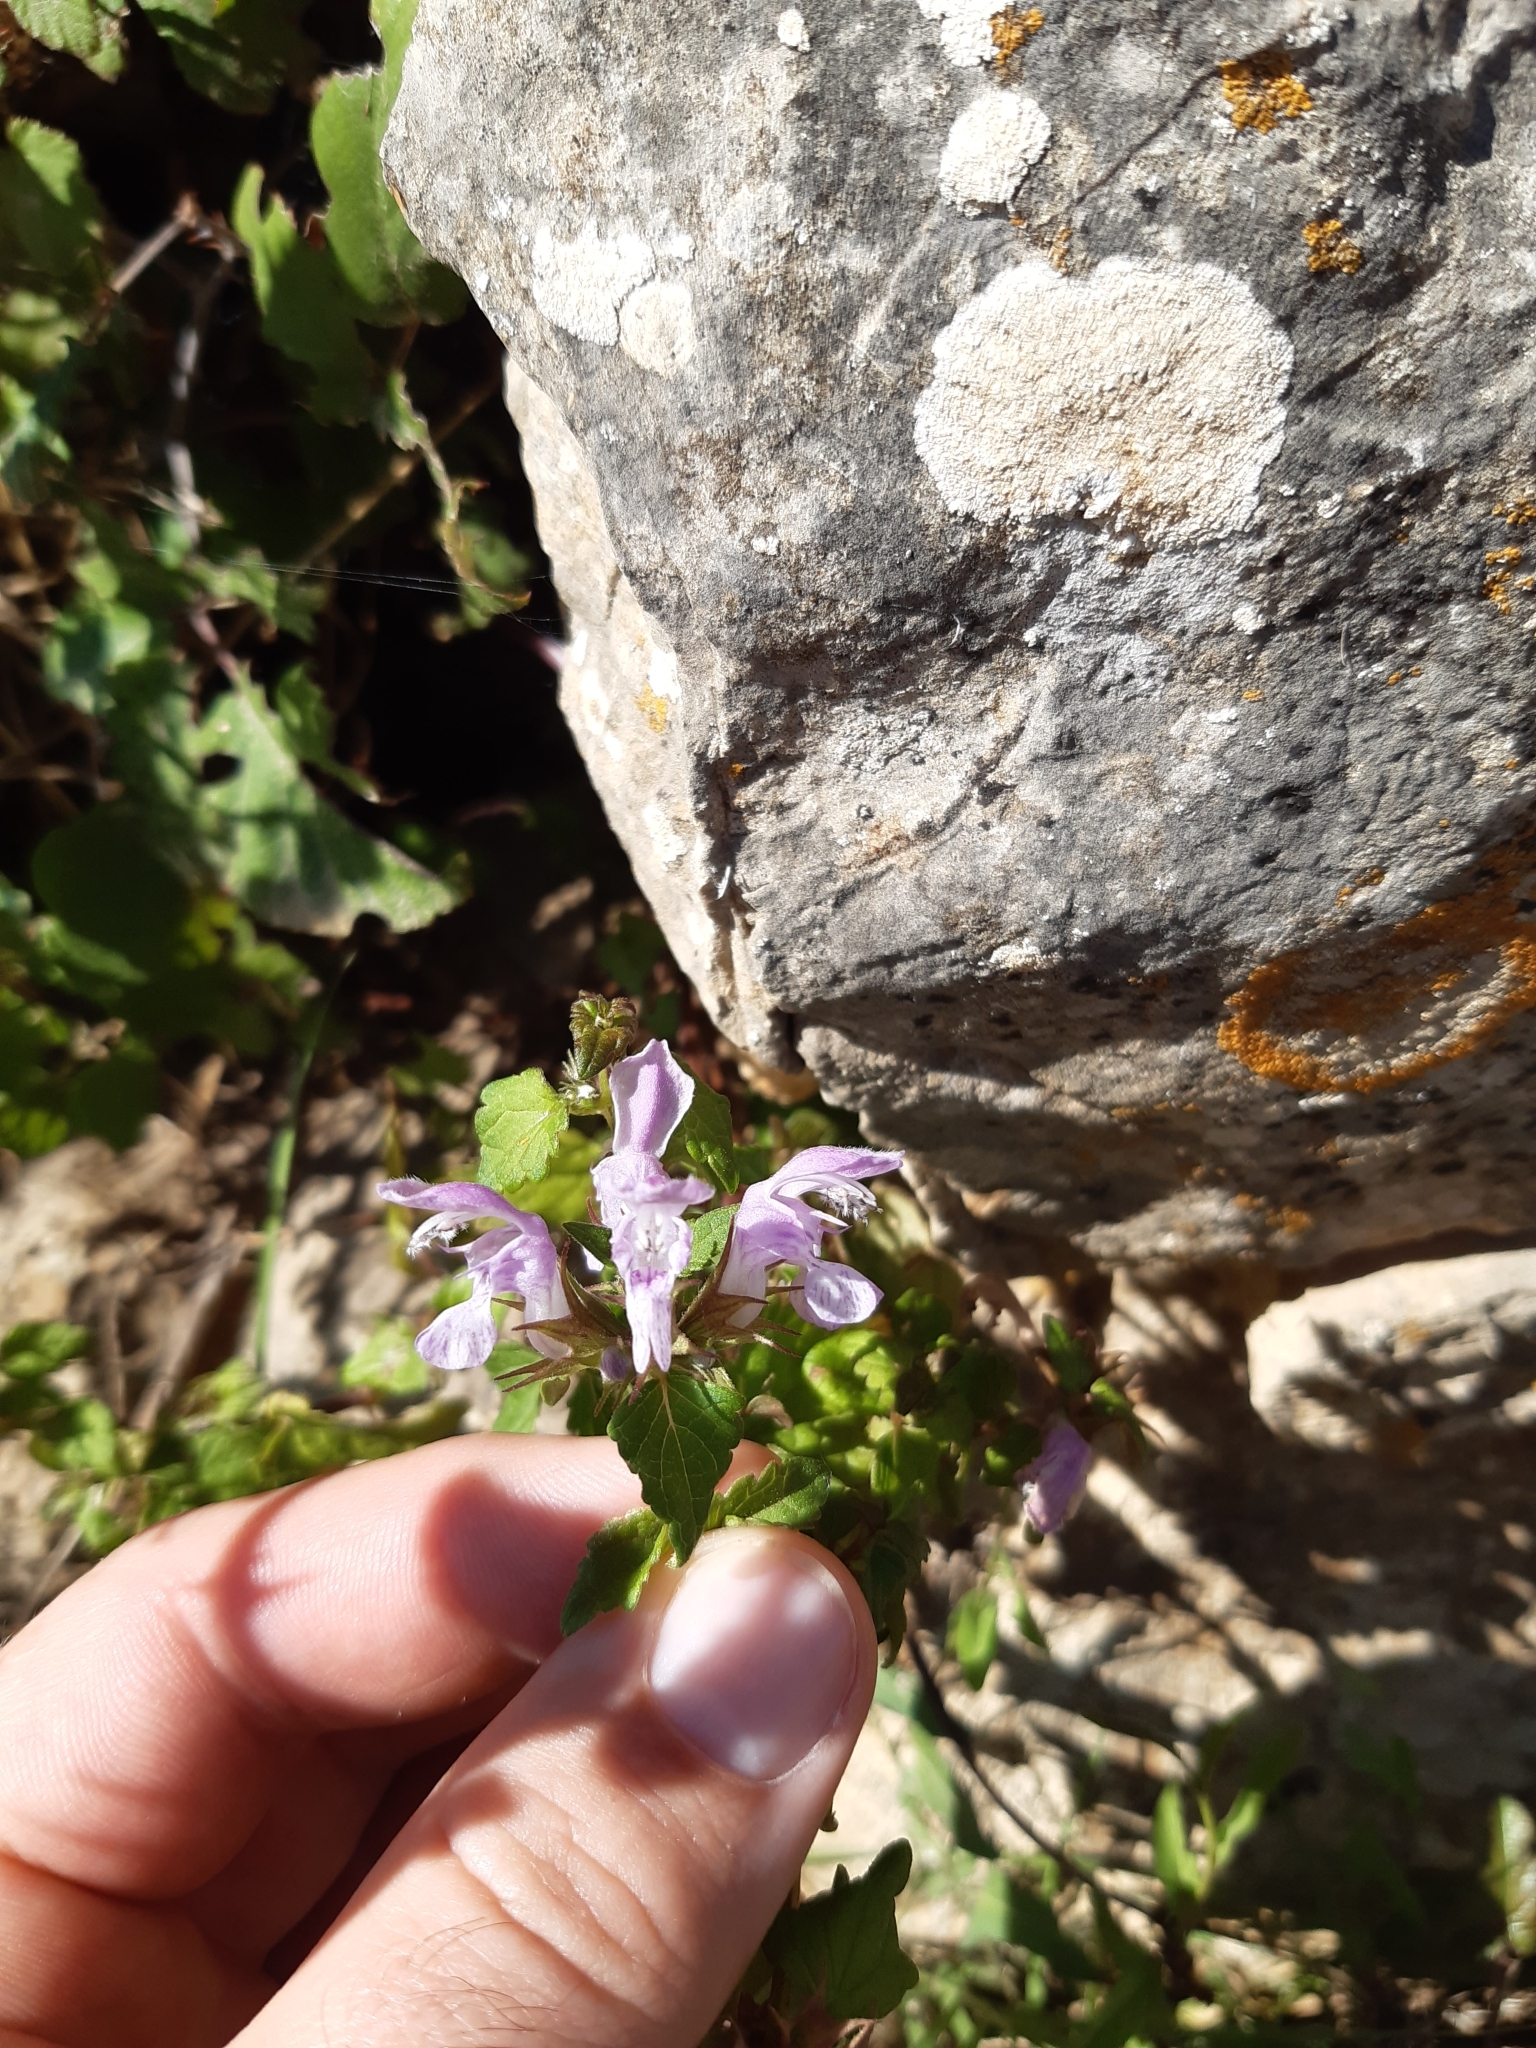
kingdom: Plantae
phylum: Tracheophyta
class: Magnoliopsida
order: Lamiales
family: Lamiaceae
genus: Lamium
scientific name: Lamium maculatum
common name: Spotted dead-nettle
